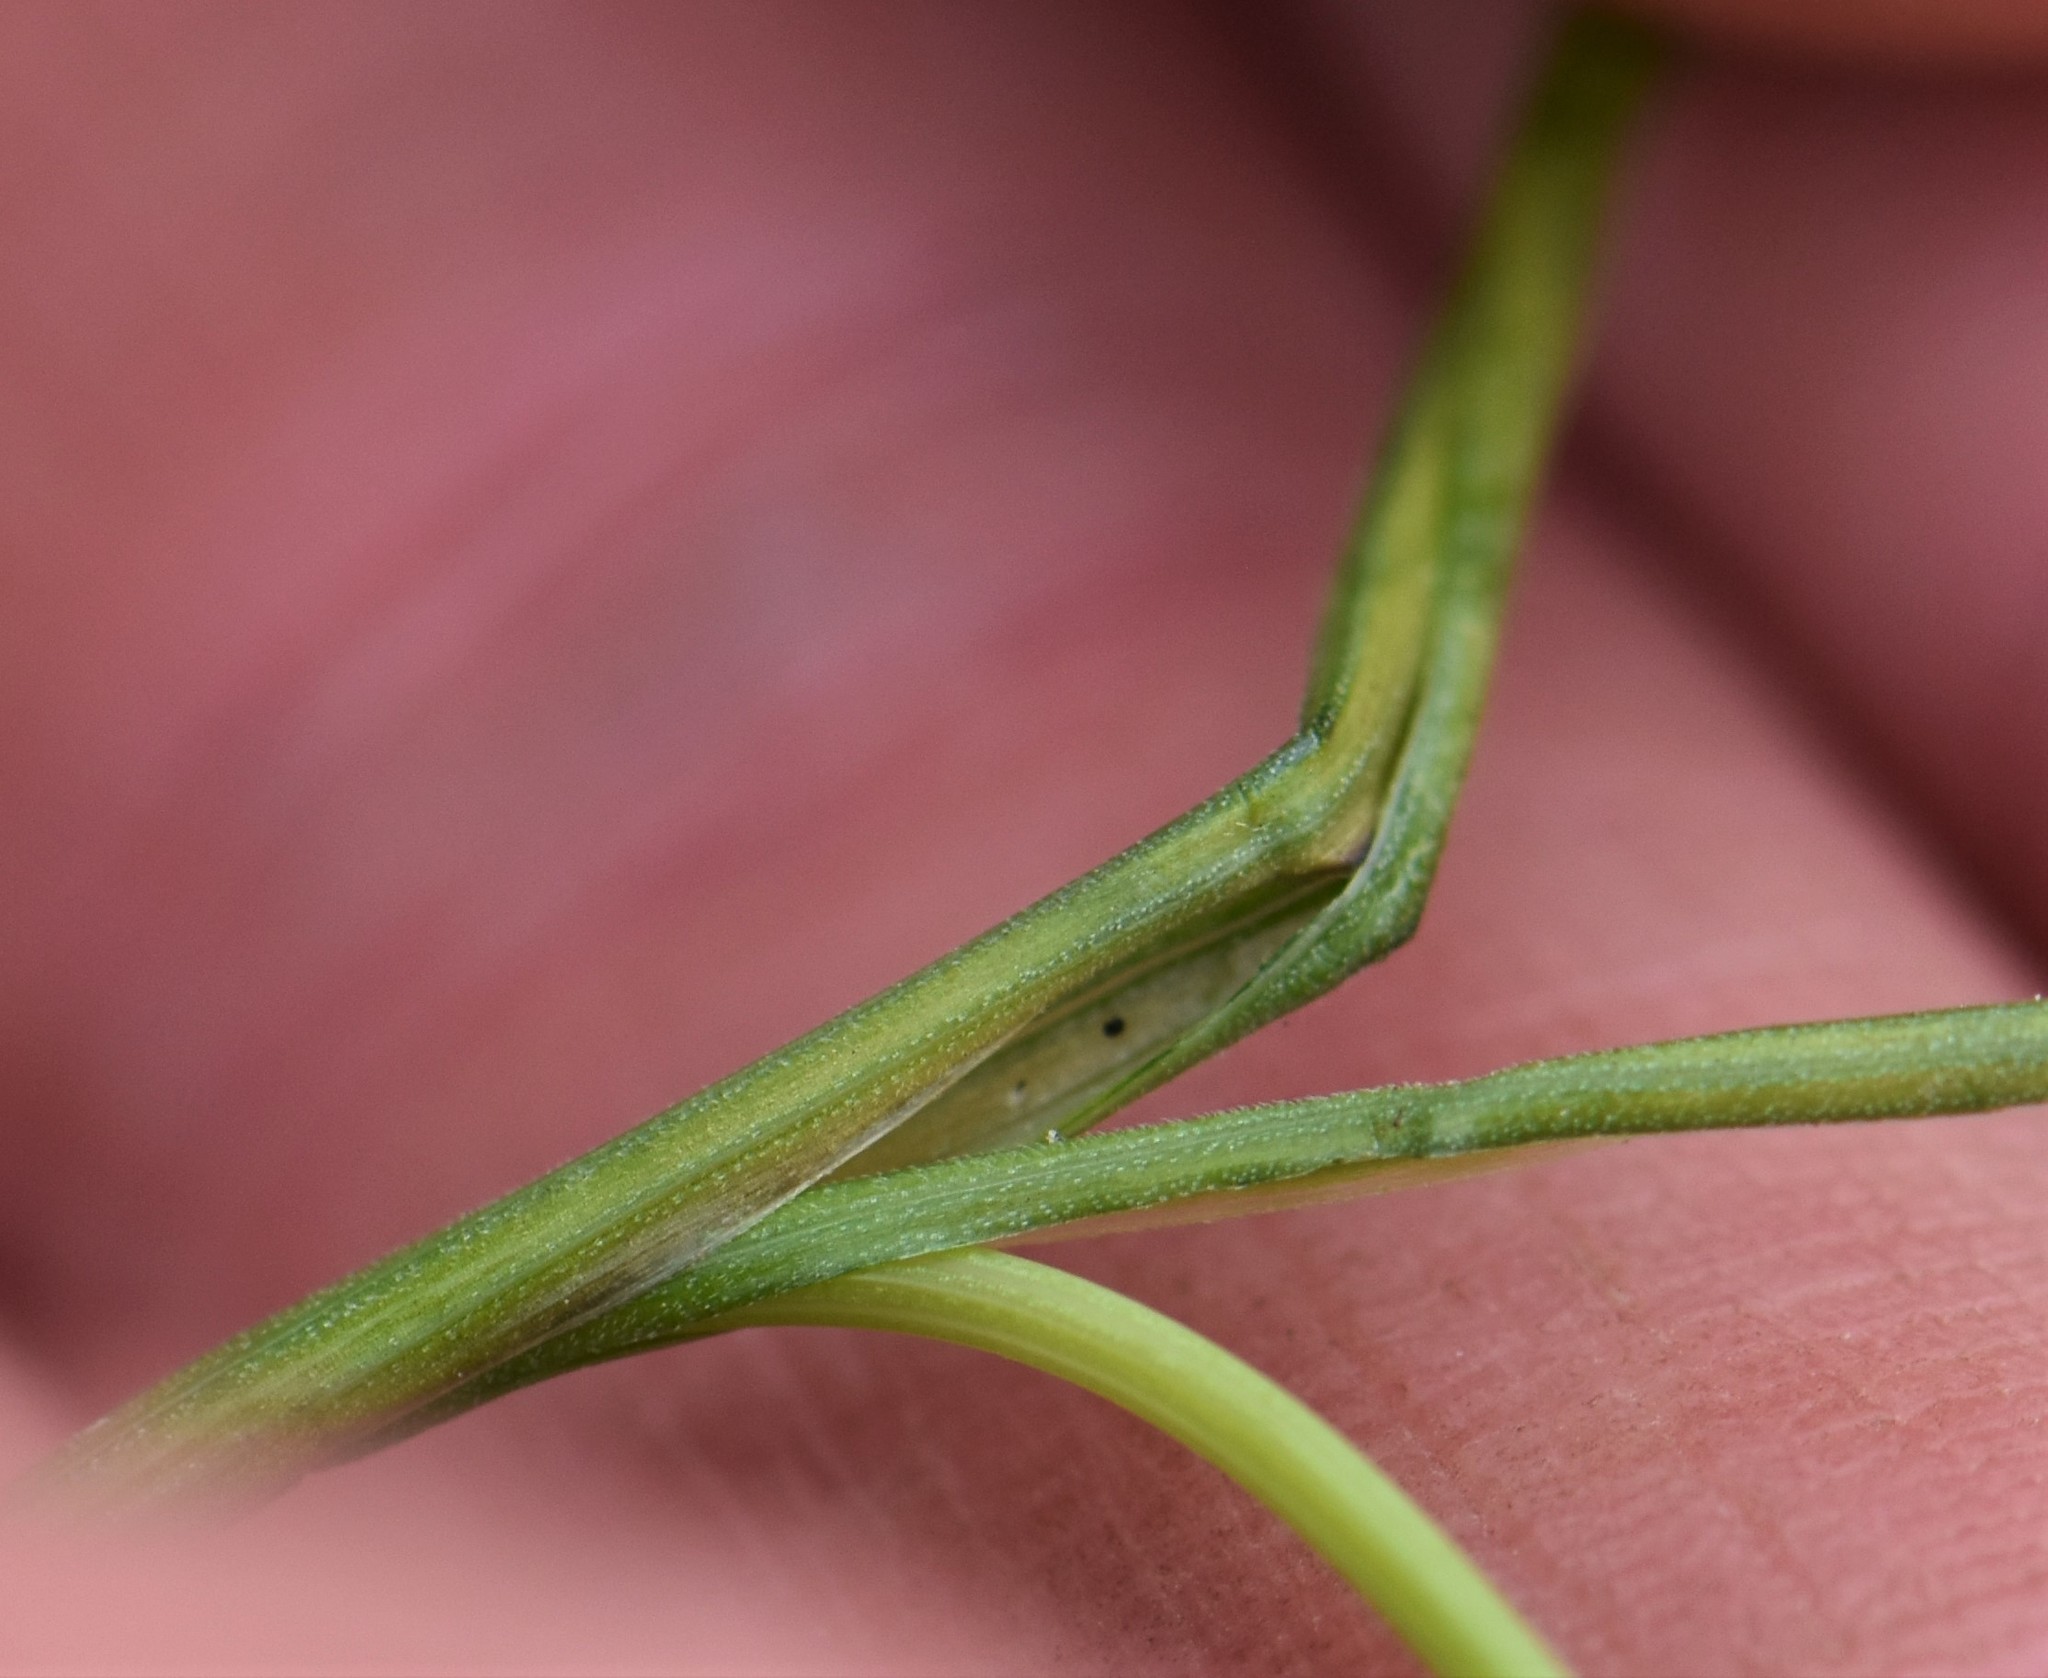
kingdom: Plantae
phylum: Tracheophyta
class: Liliopsida
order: Poales
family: Poaceae
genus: Anthoxanthum
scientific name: Anthoxanthum monticola
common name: Alpine sweetgrass
